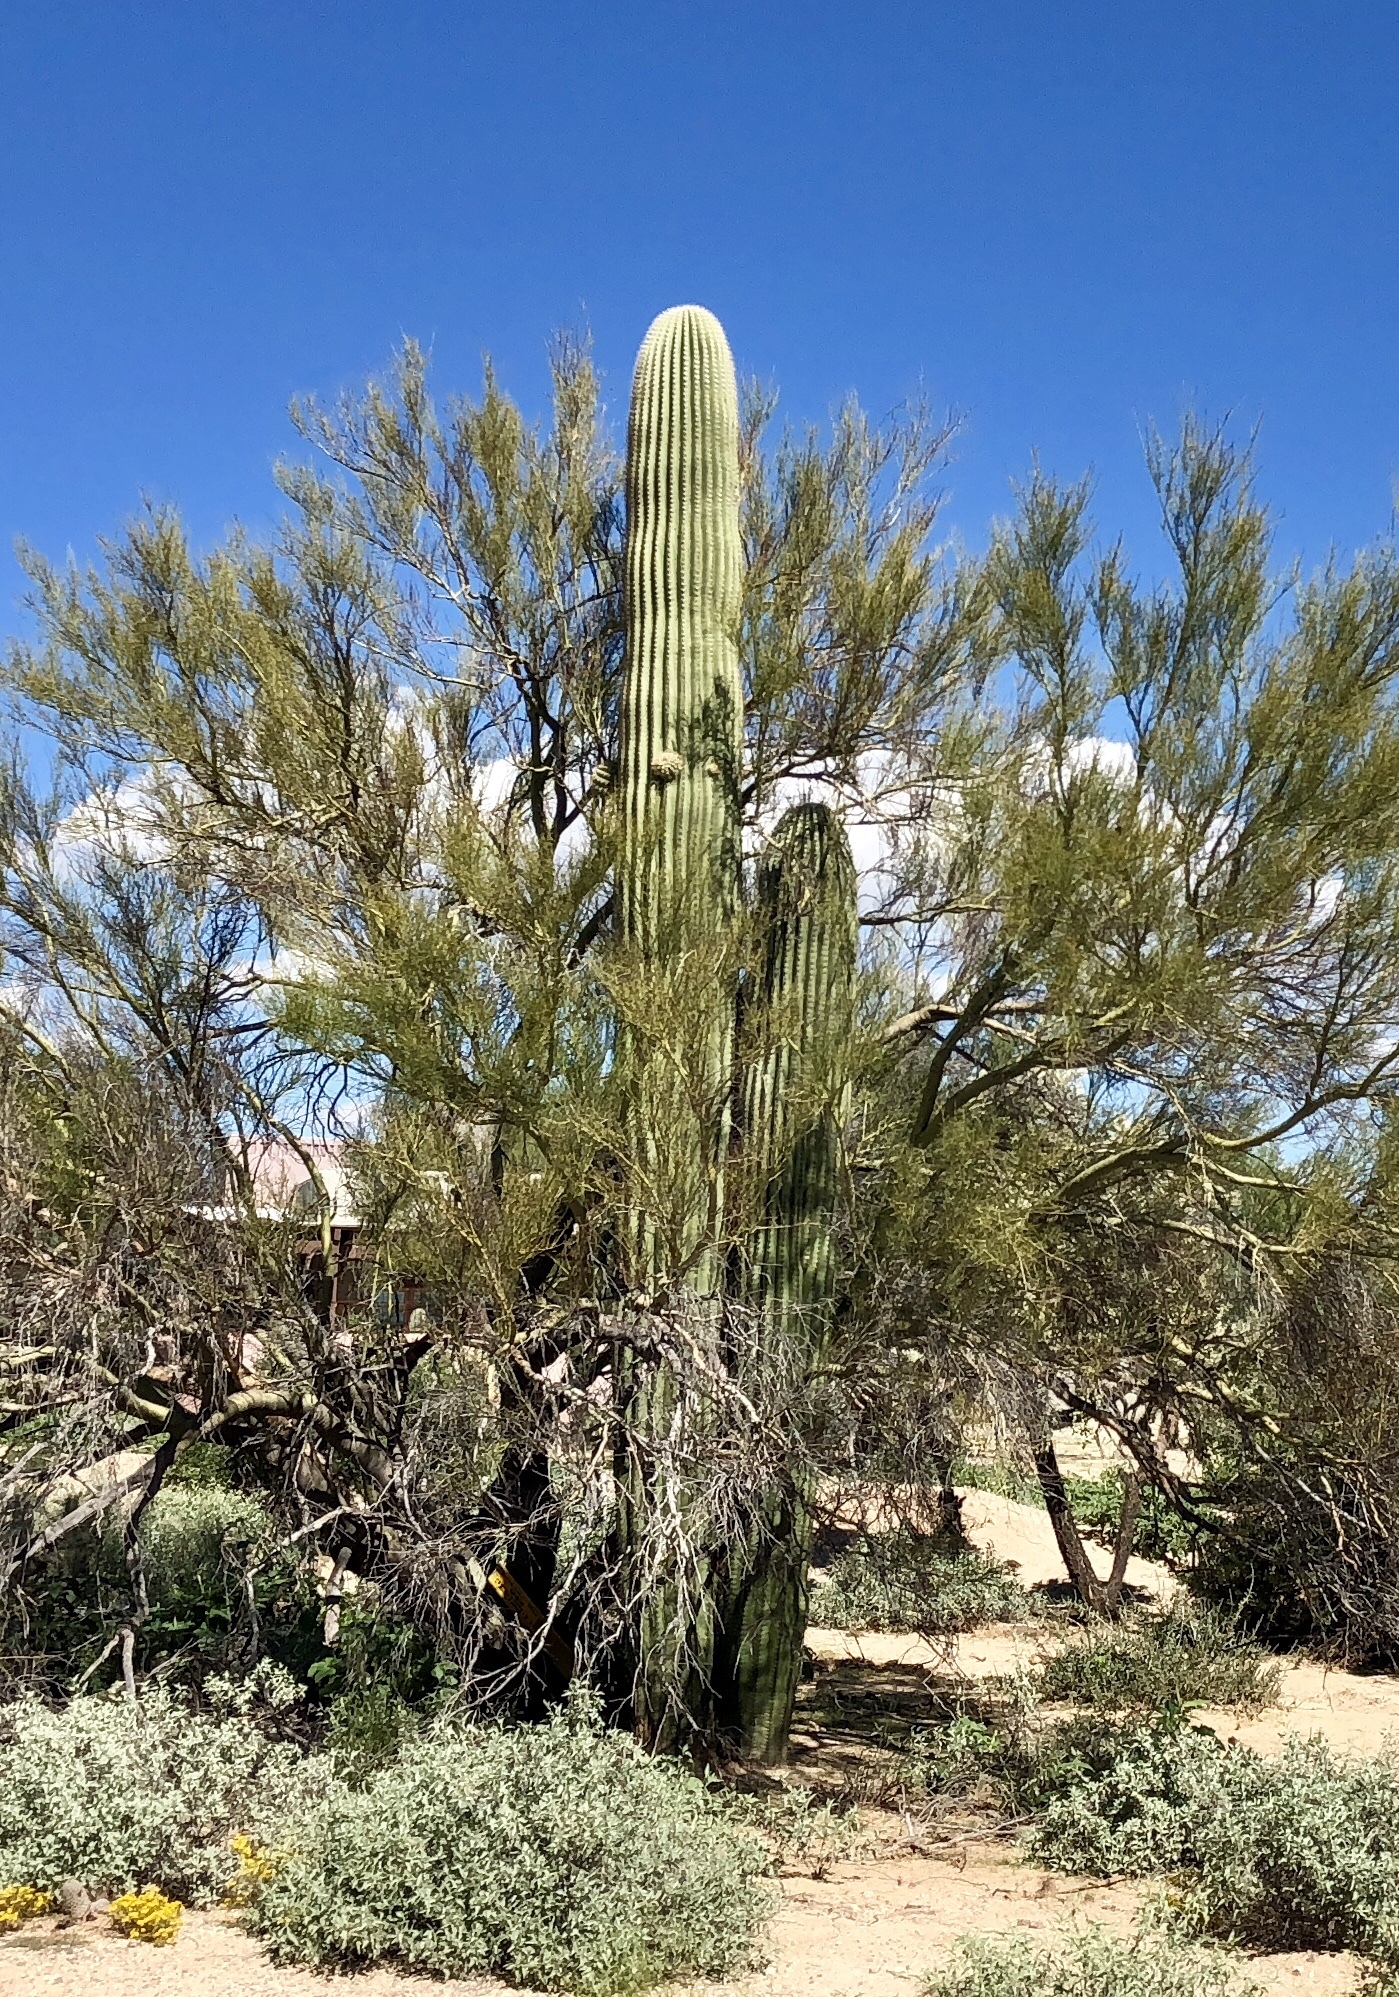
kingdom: Plantae
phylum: Tracheophyta
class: Magnoliopsida
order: Caryophyllales
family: Cactaceae
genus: Carnegiea
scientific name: Carnegiea gigantea
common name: Saguaro
